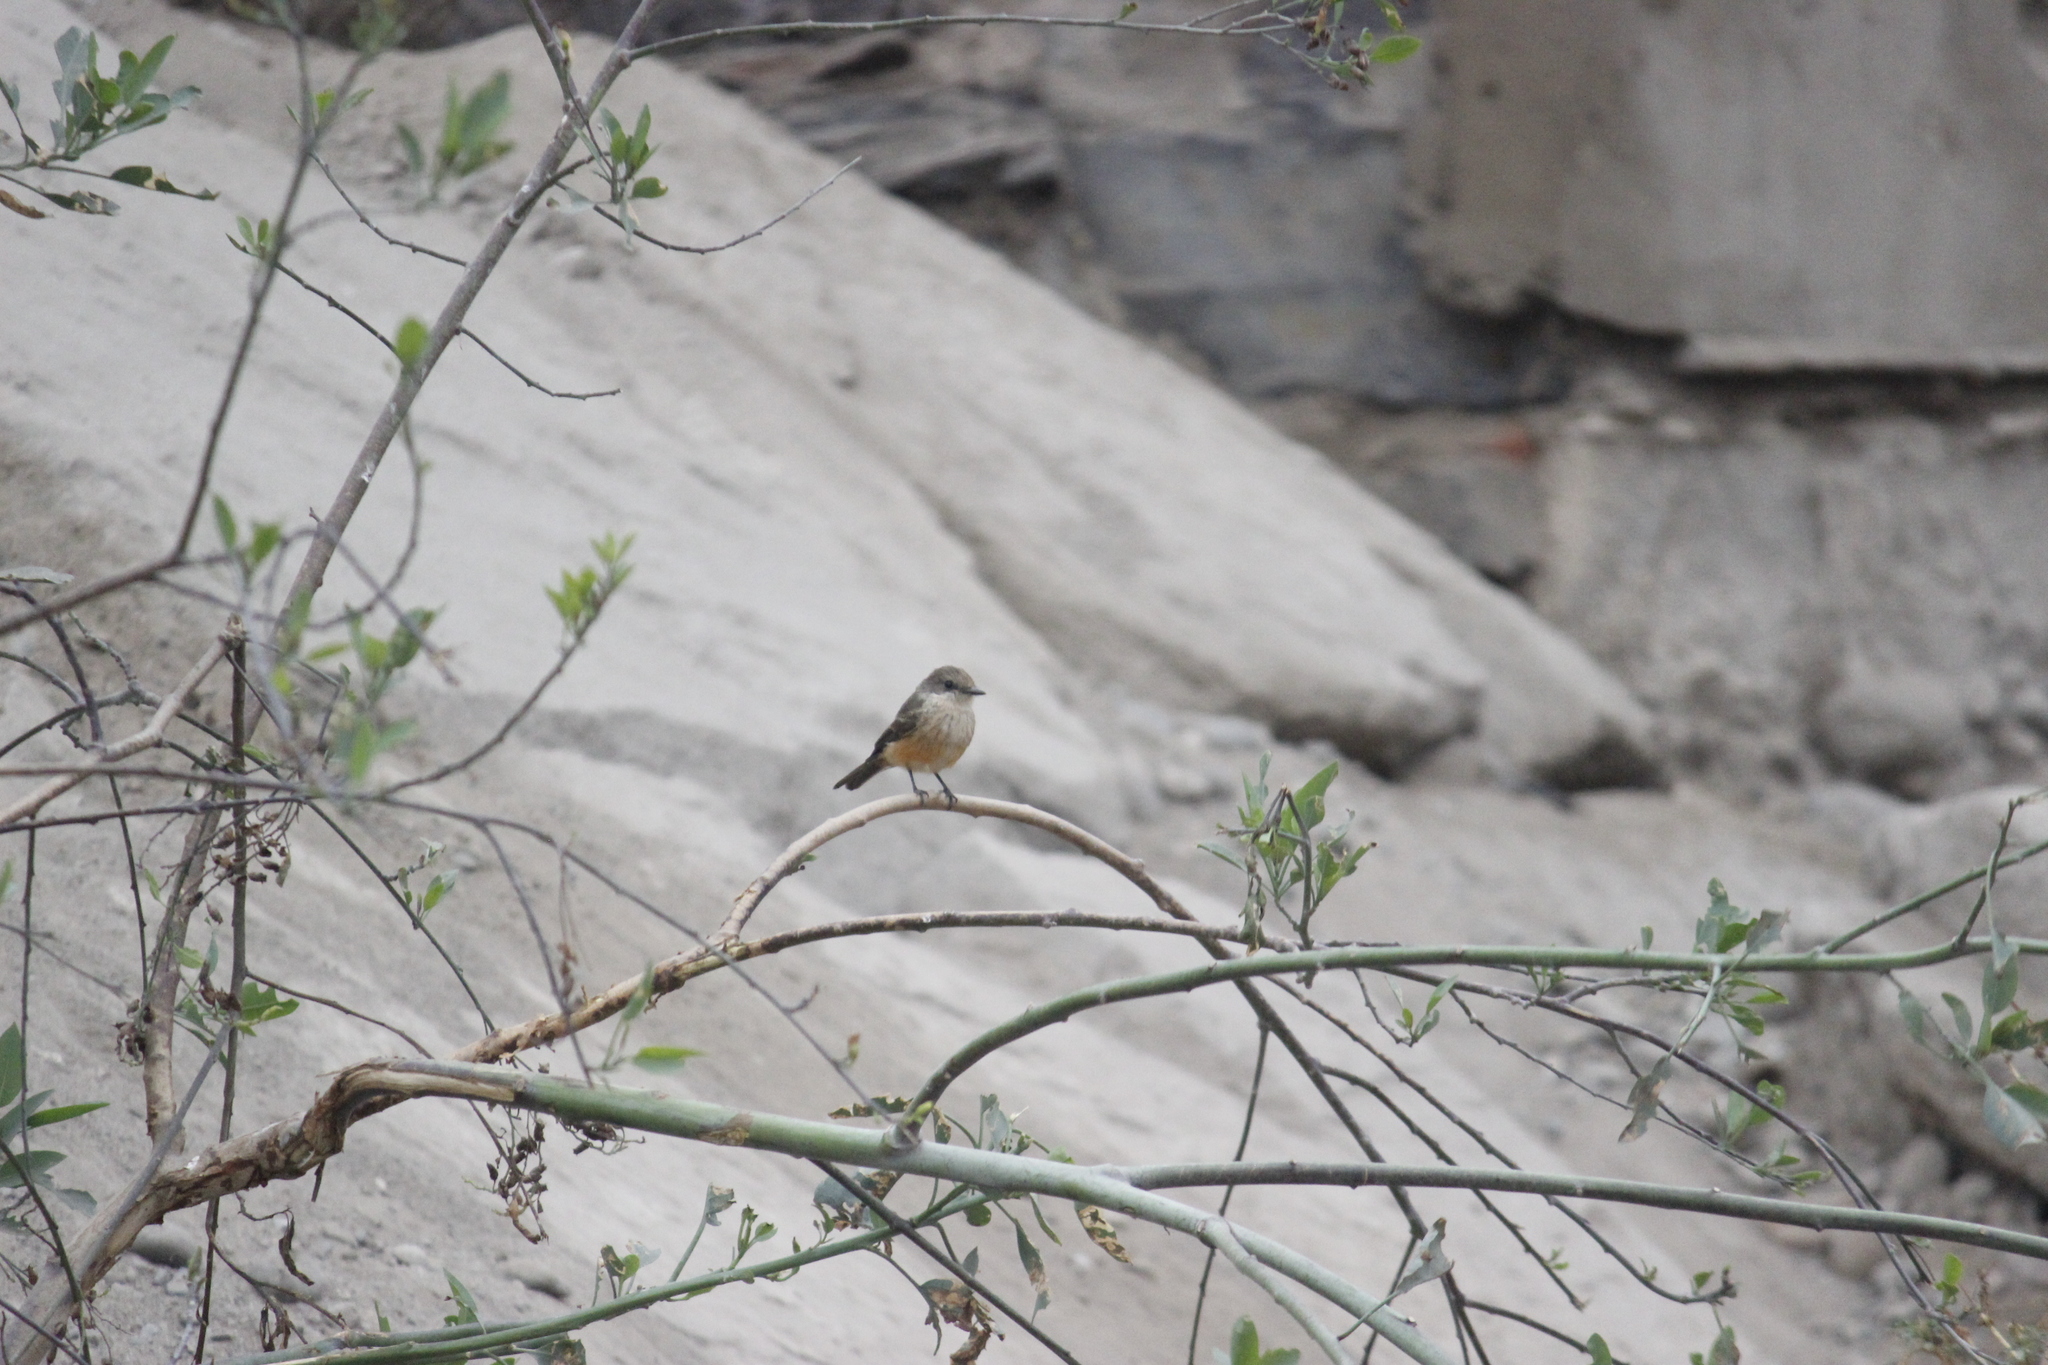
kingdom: Animalia
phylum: Chordata
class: Aves
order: Passeriformes
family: Tyrannidae
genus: Pyrocephalus
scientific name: Pyrocephalus rubinus
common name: Vermilion flycatcher
